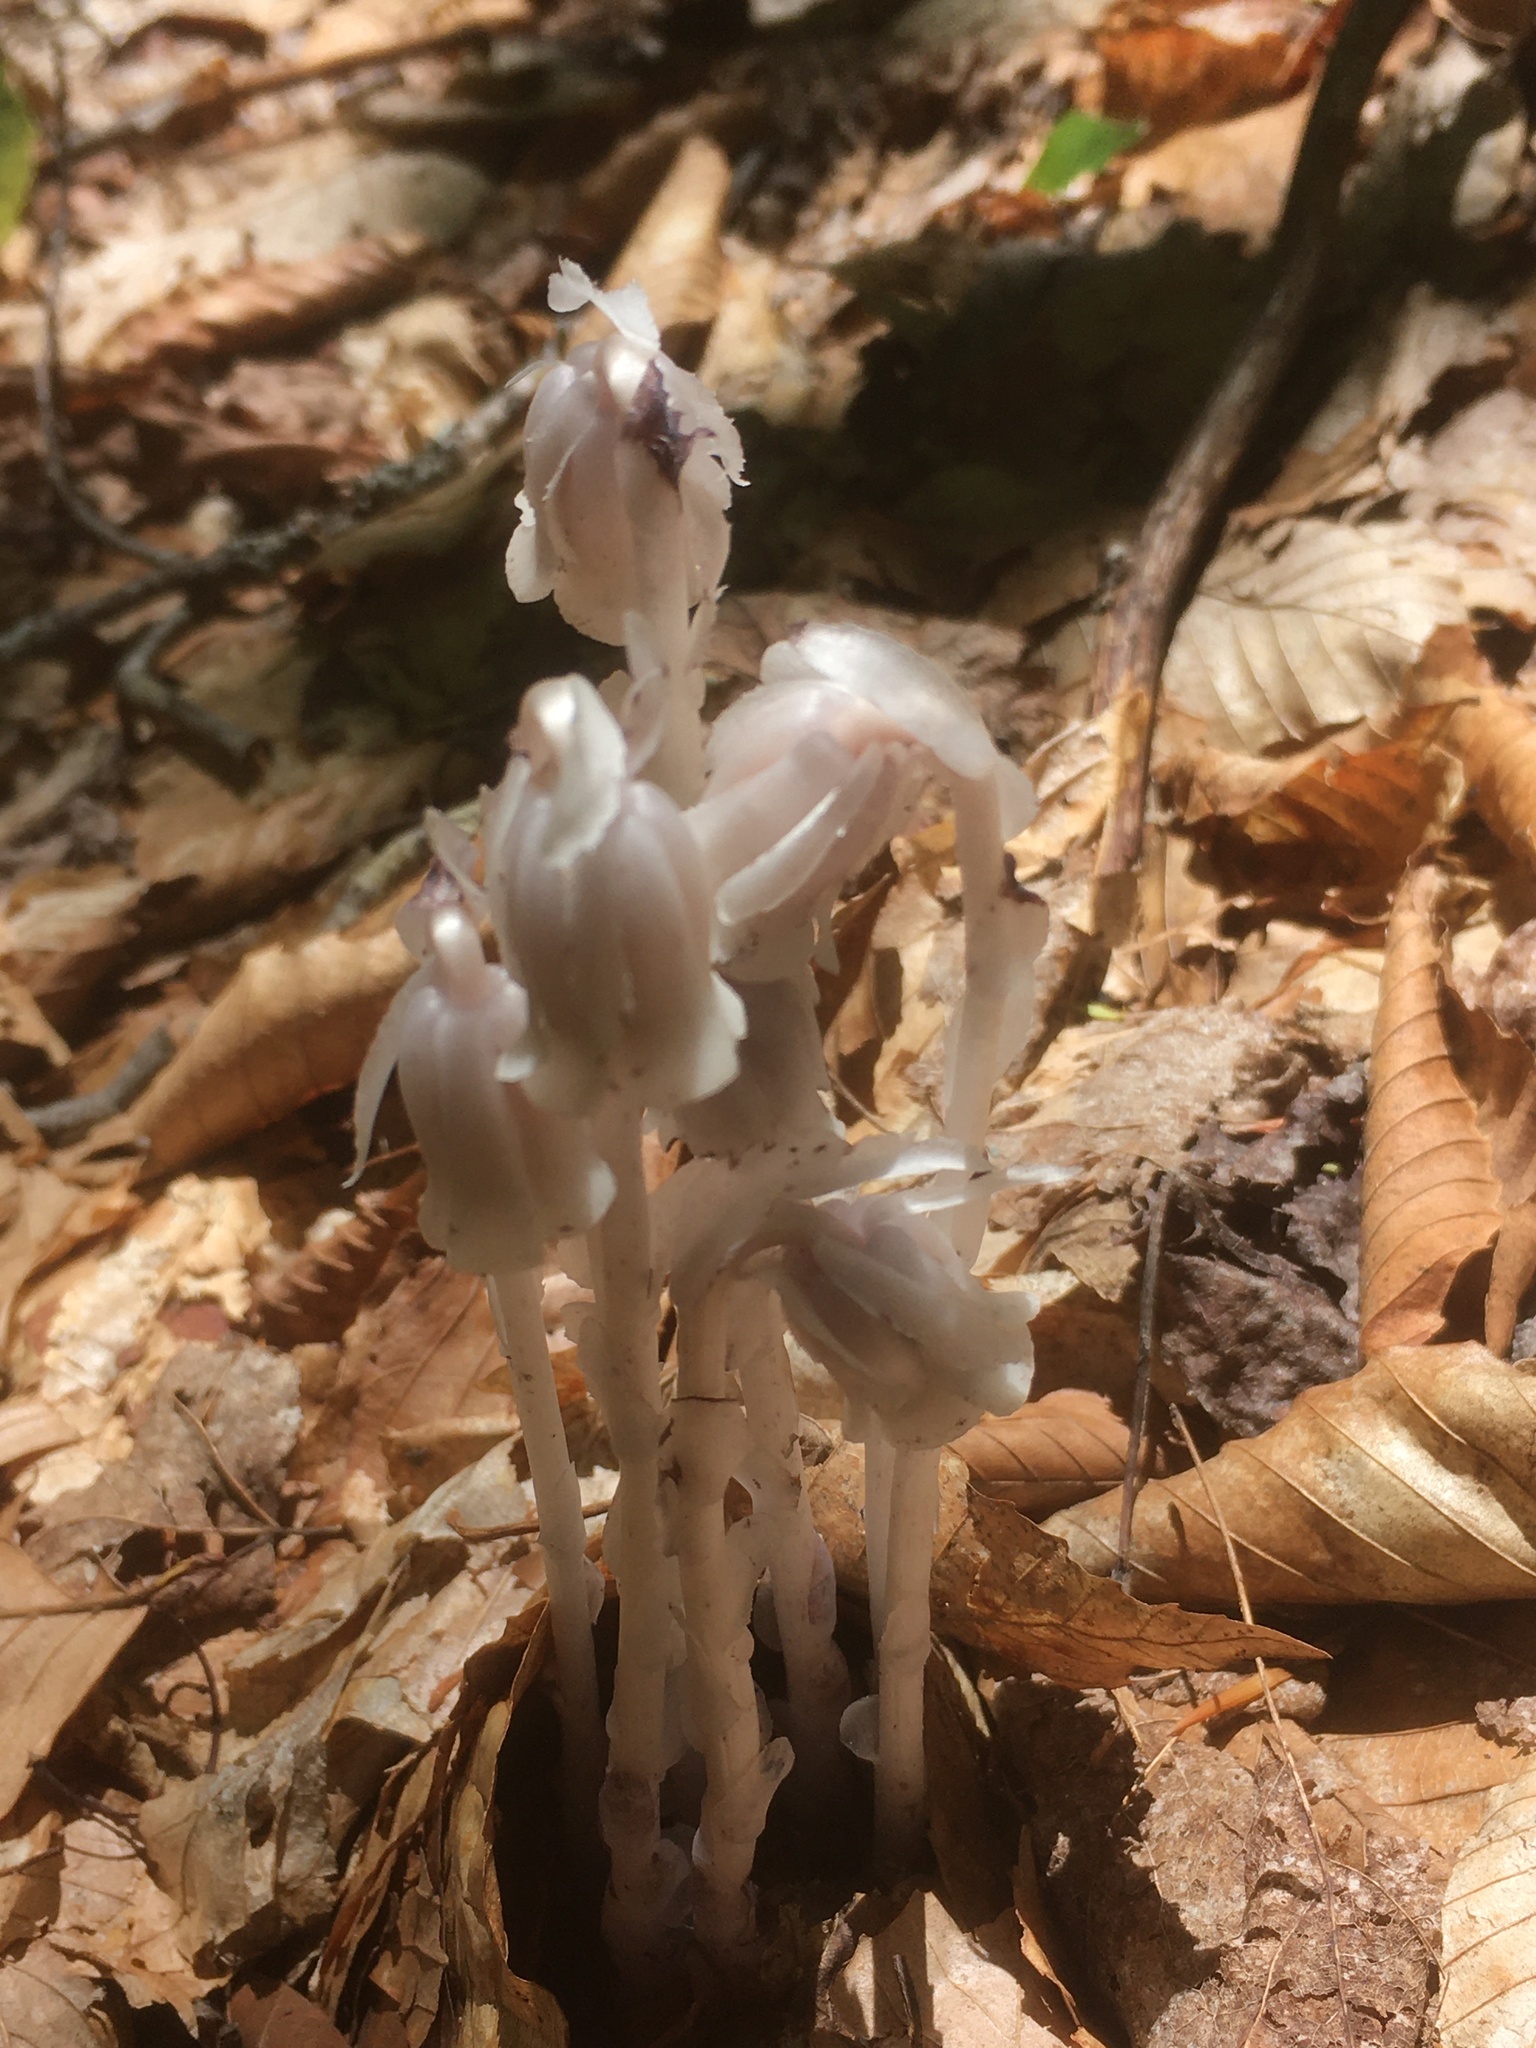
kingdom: Plantae
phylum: Tracheophyta
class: Magnoliopsida
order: Ericales
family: Ericaceae
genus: Monotropa
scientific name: Monotropa uniflora
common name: Convulsion root
